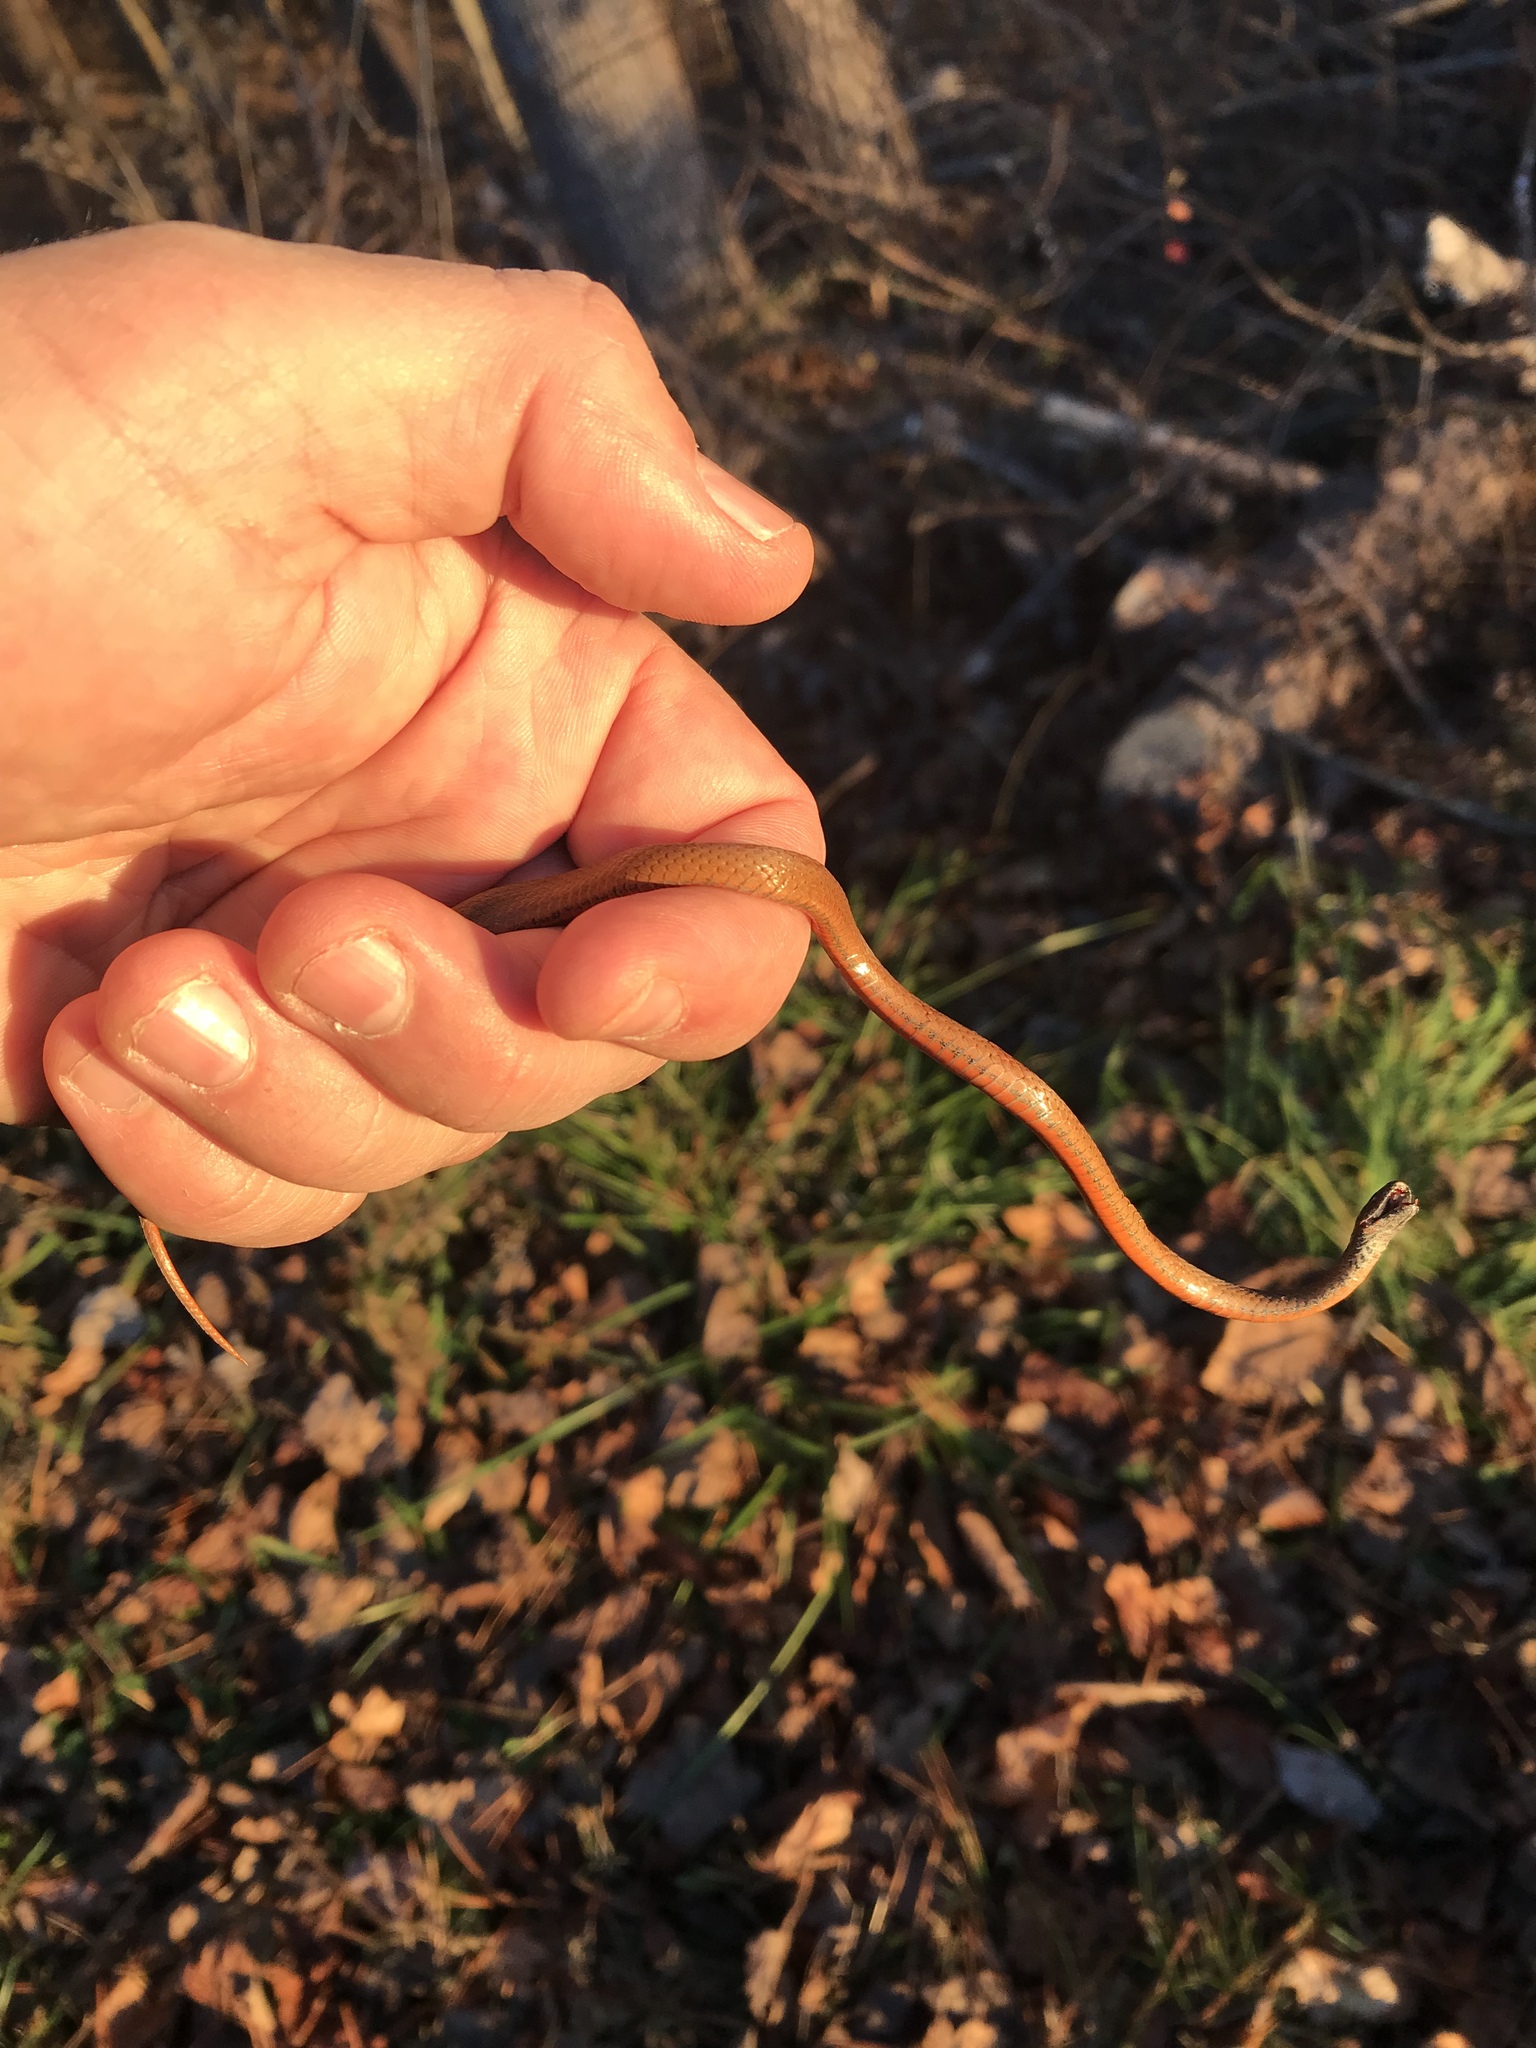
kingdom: Animalia
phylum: Chordata
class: Squamata
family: Colubridae
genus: Storeria
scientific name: Storeria occipitomaculata
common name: Redbelly snake
